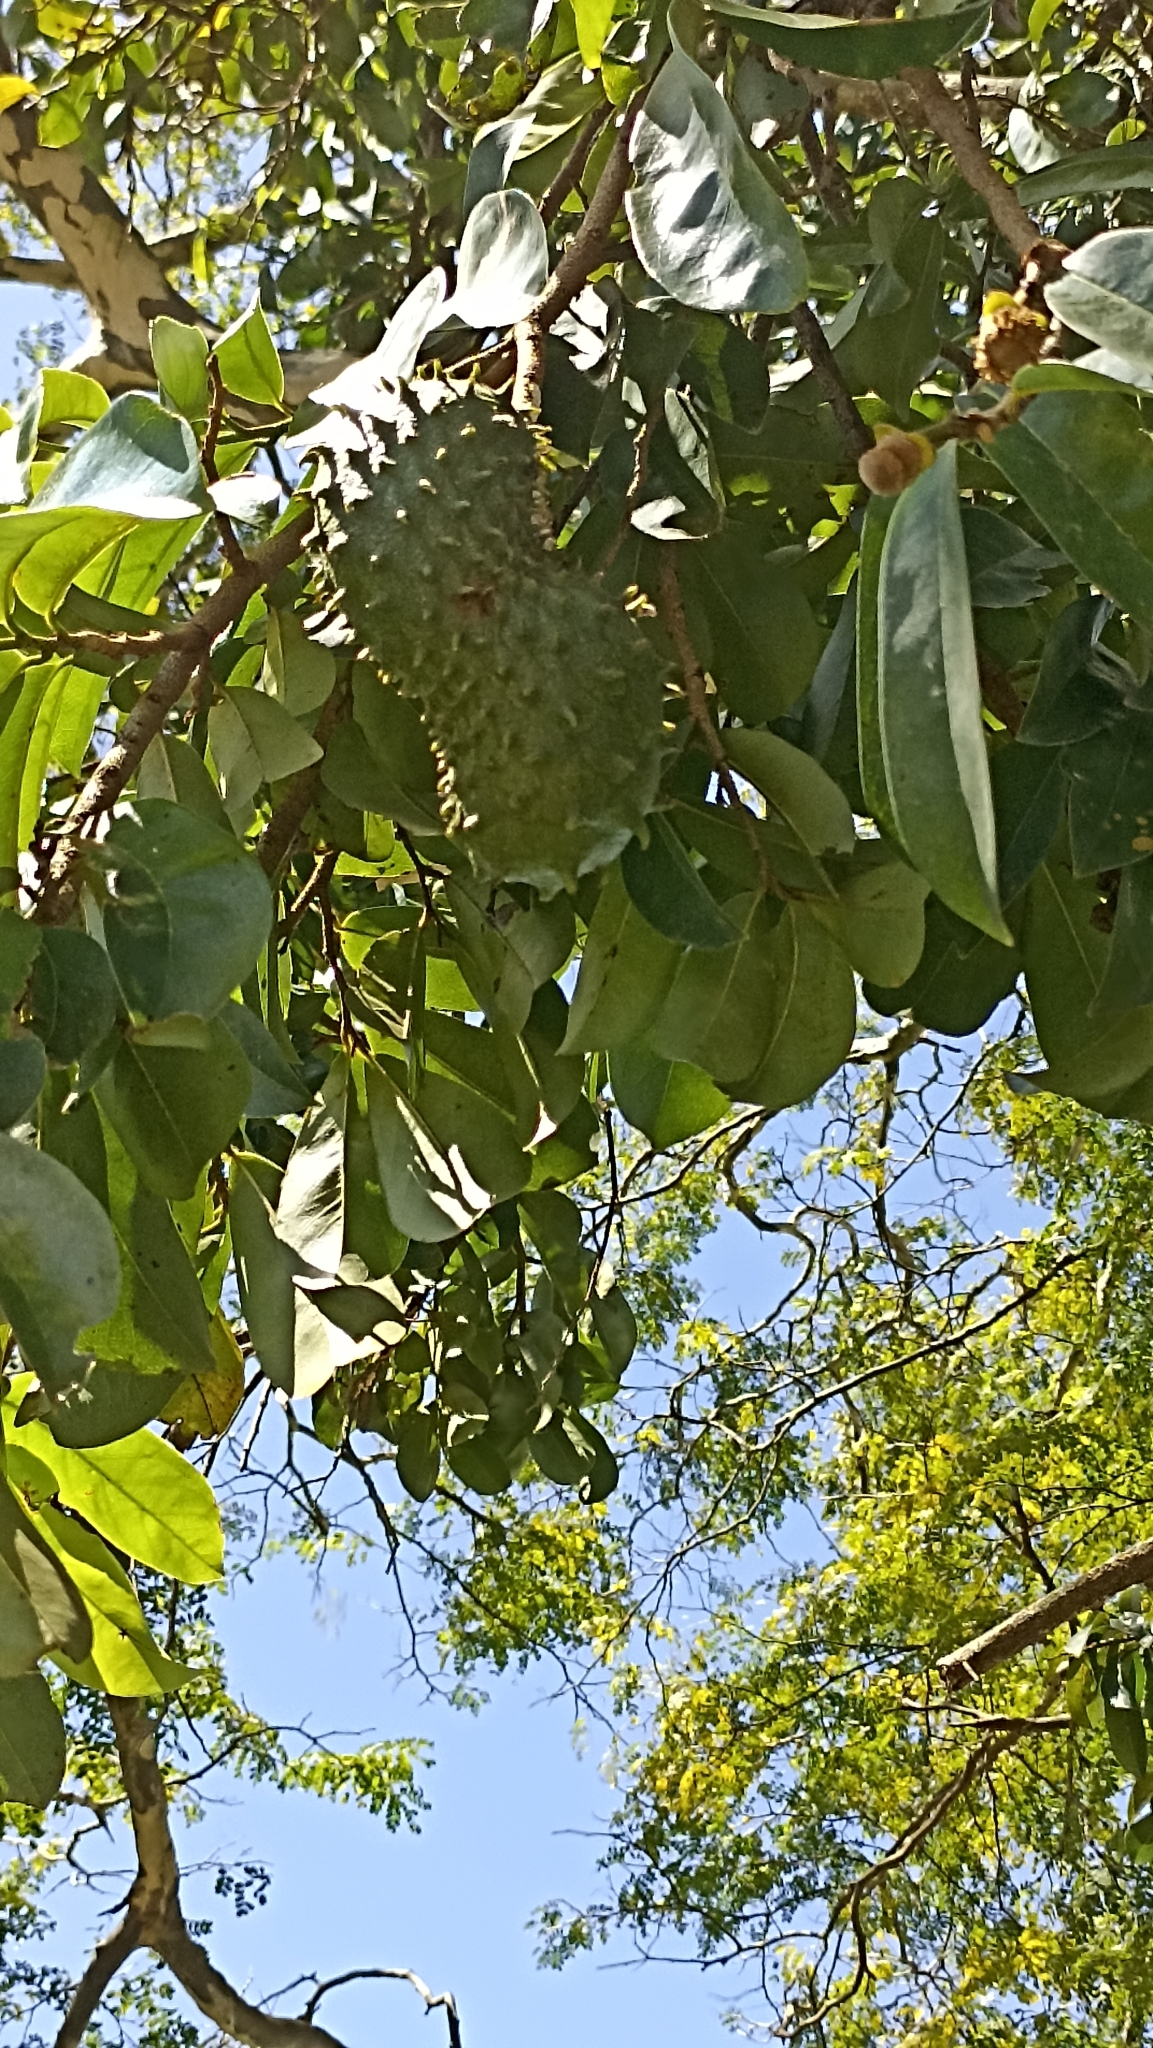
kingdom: Plantae
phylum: Tracheophyta
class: Magnoliopsida
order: Magnoliales
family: Annonaceae
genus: Annona
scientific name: Annona muricata
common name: Soursop
